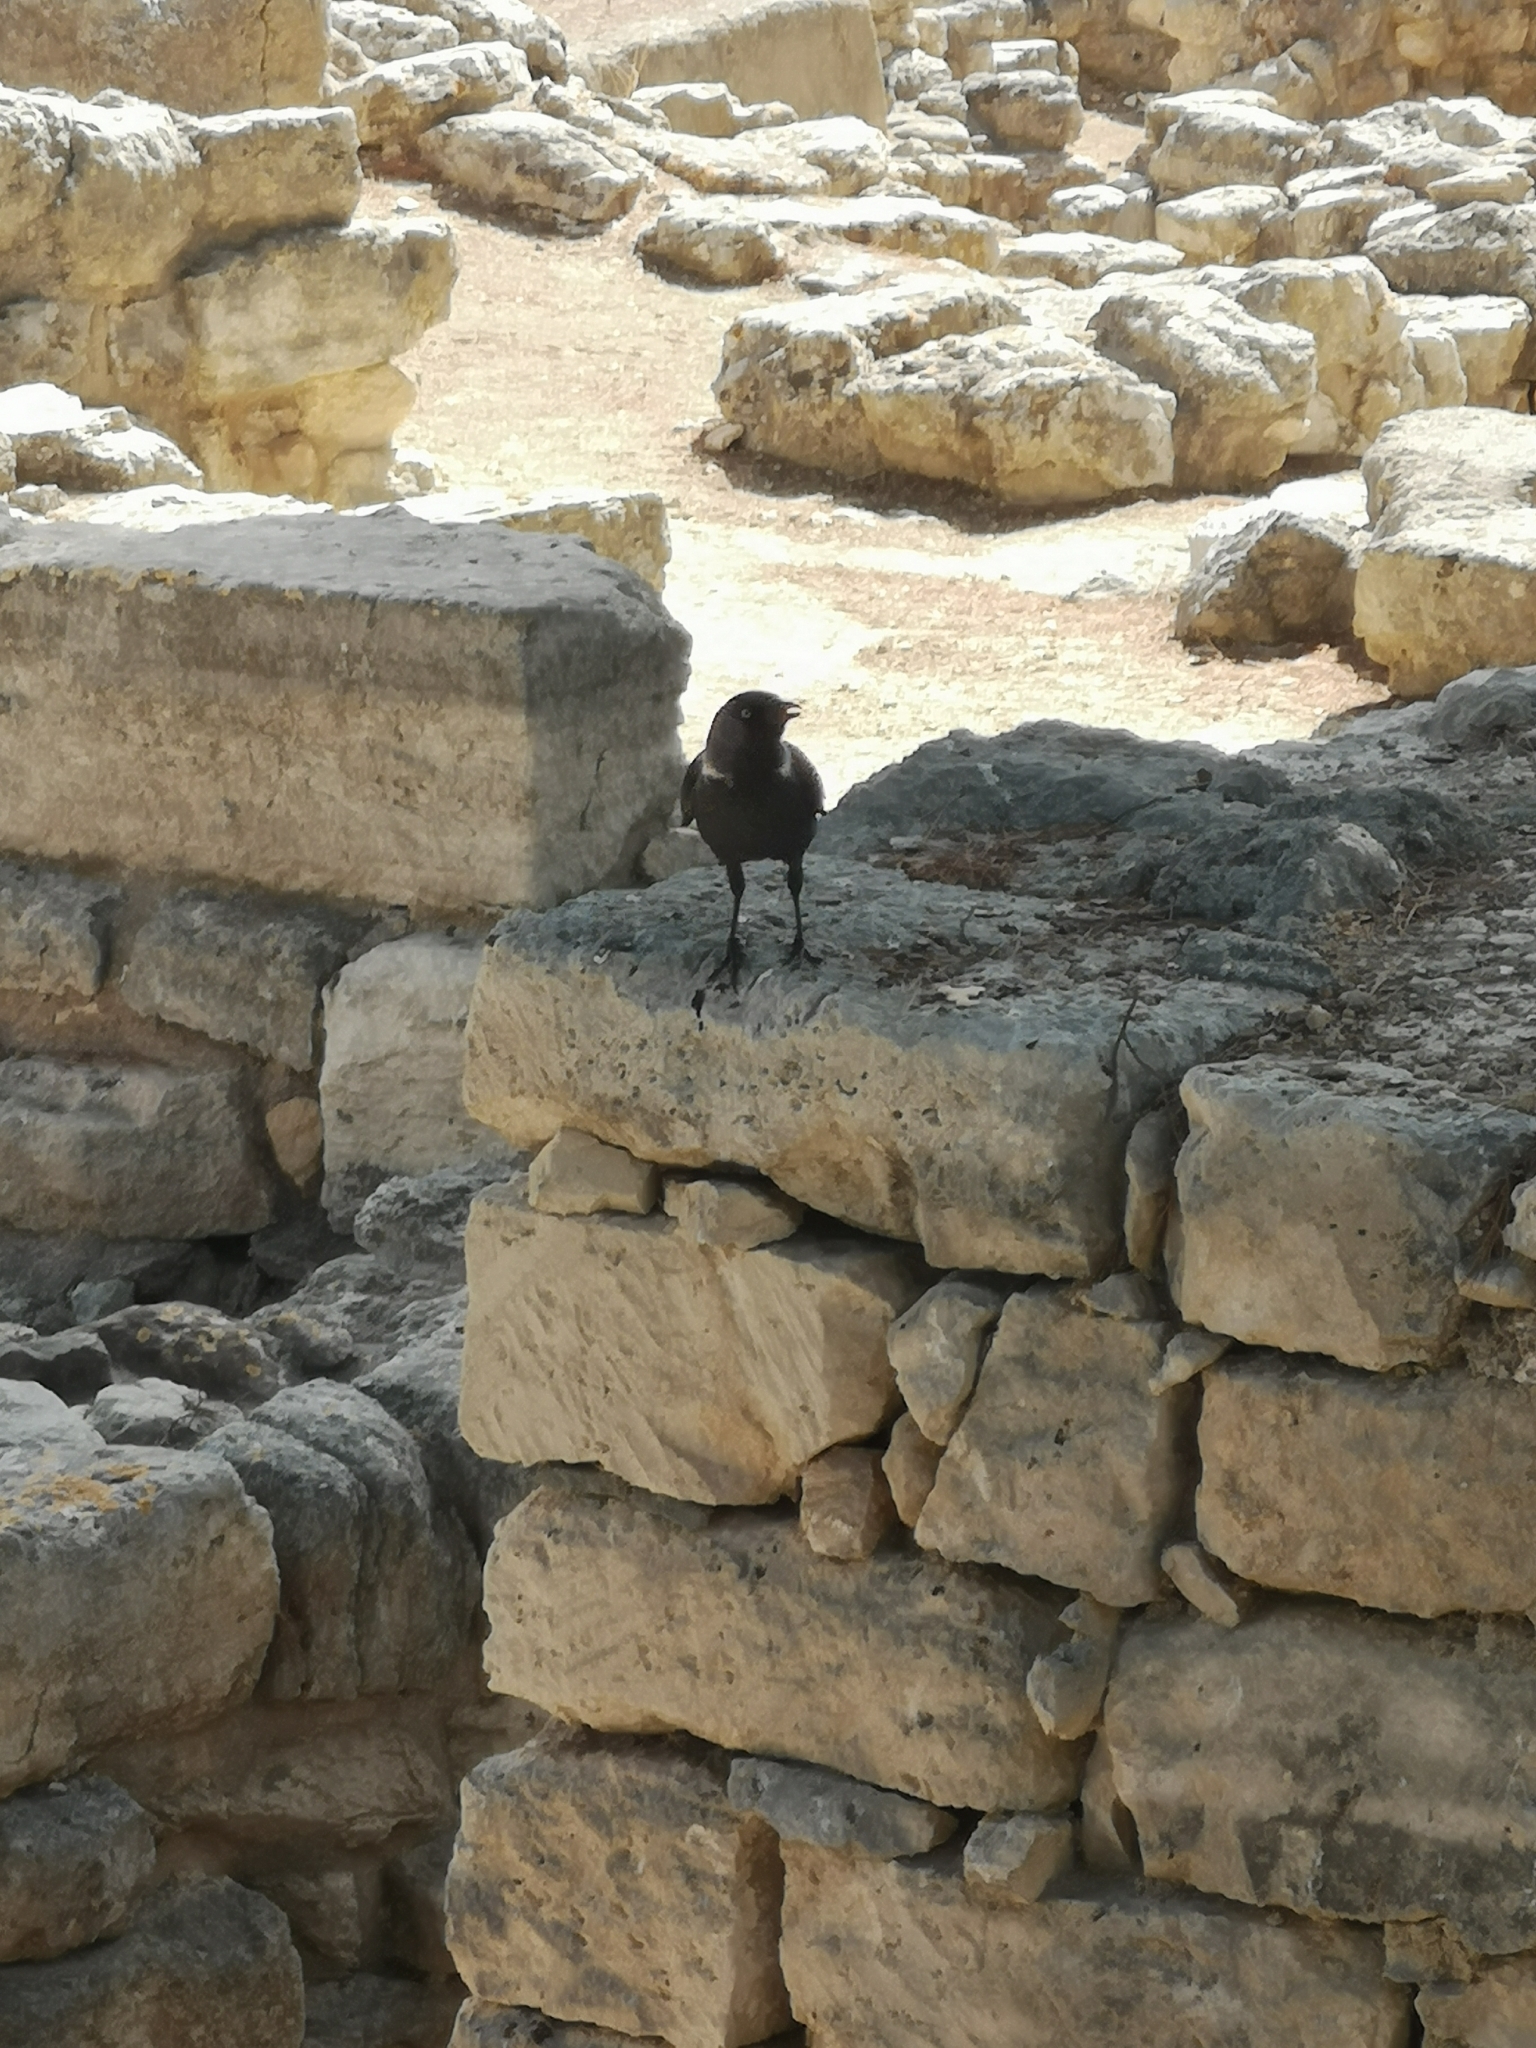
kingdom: Animalia
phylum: Chordata
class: Aves
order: Passeriformes
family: Corvidae
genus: Coloeus
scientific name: Coloeus monedula
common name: Western jackdaw
